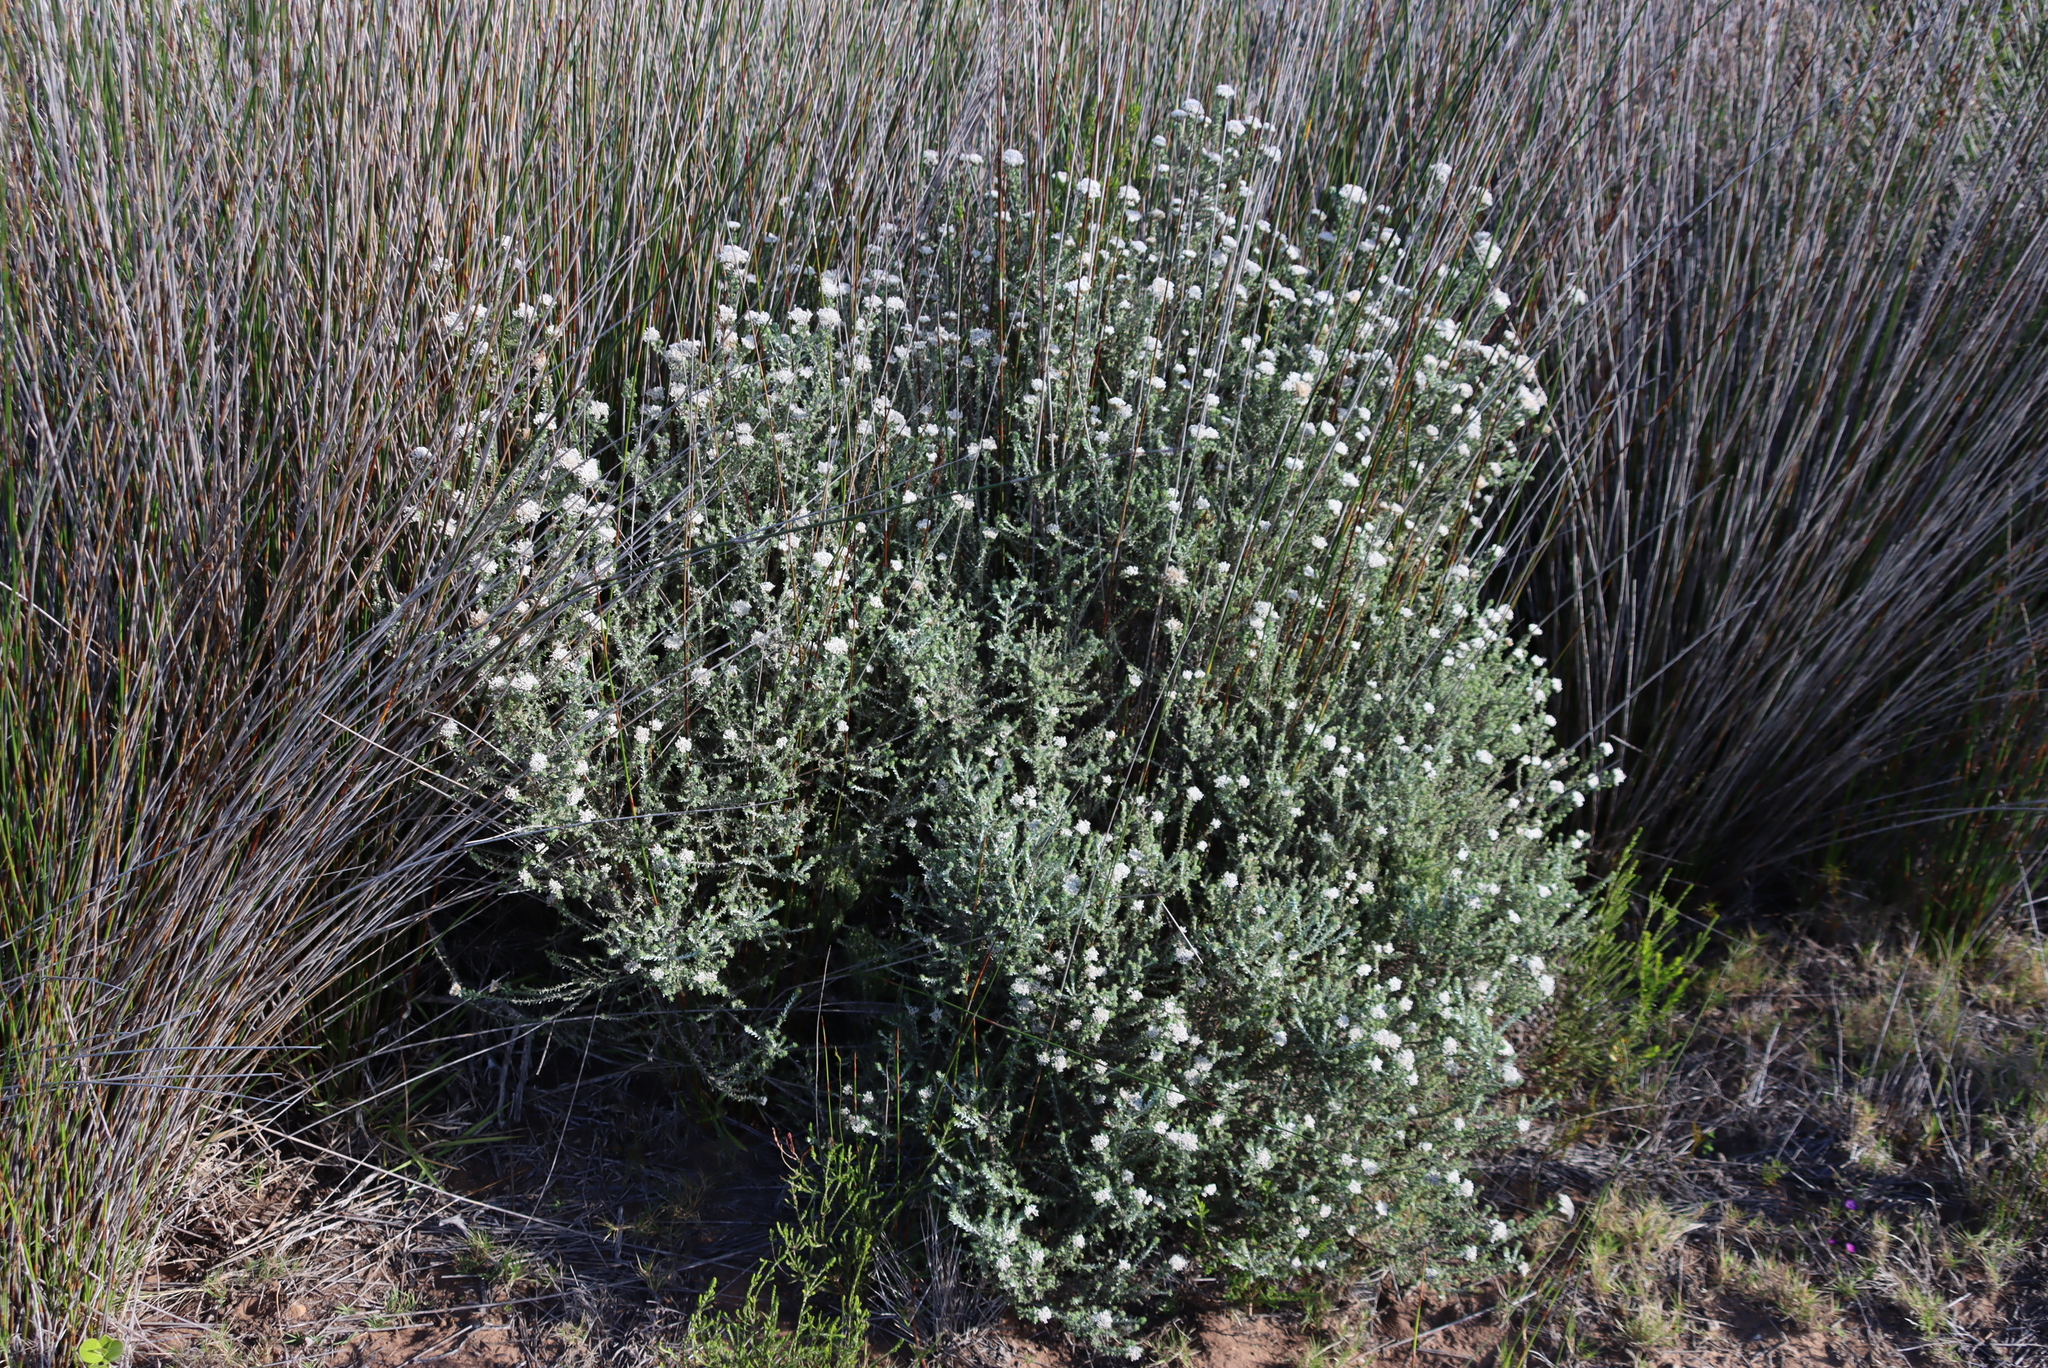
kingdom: Plantae
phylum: Tracheophyta
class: Magnoliopsida
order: Asterales
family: Asteraceae
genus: Metalasia
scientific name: Metalasia muricata
